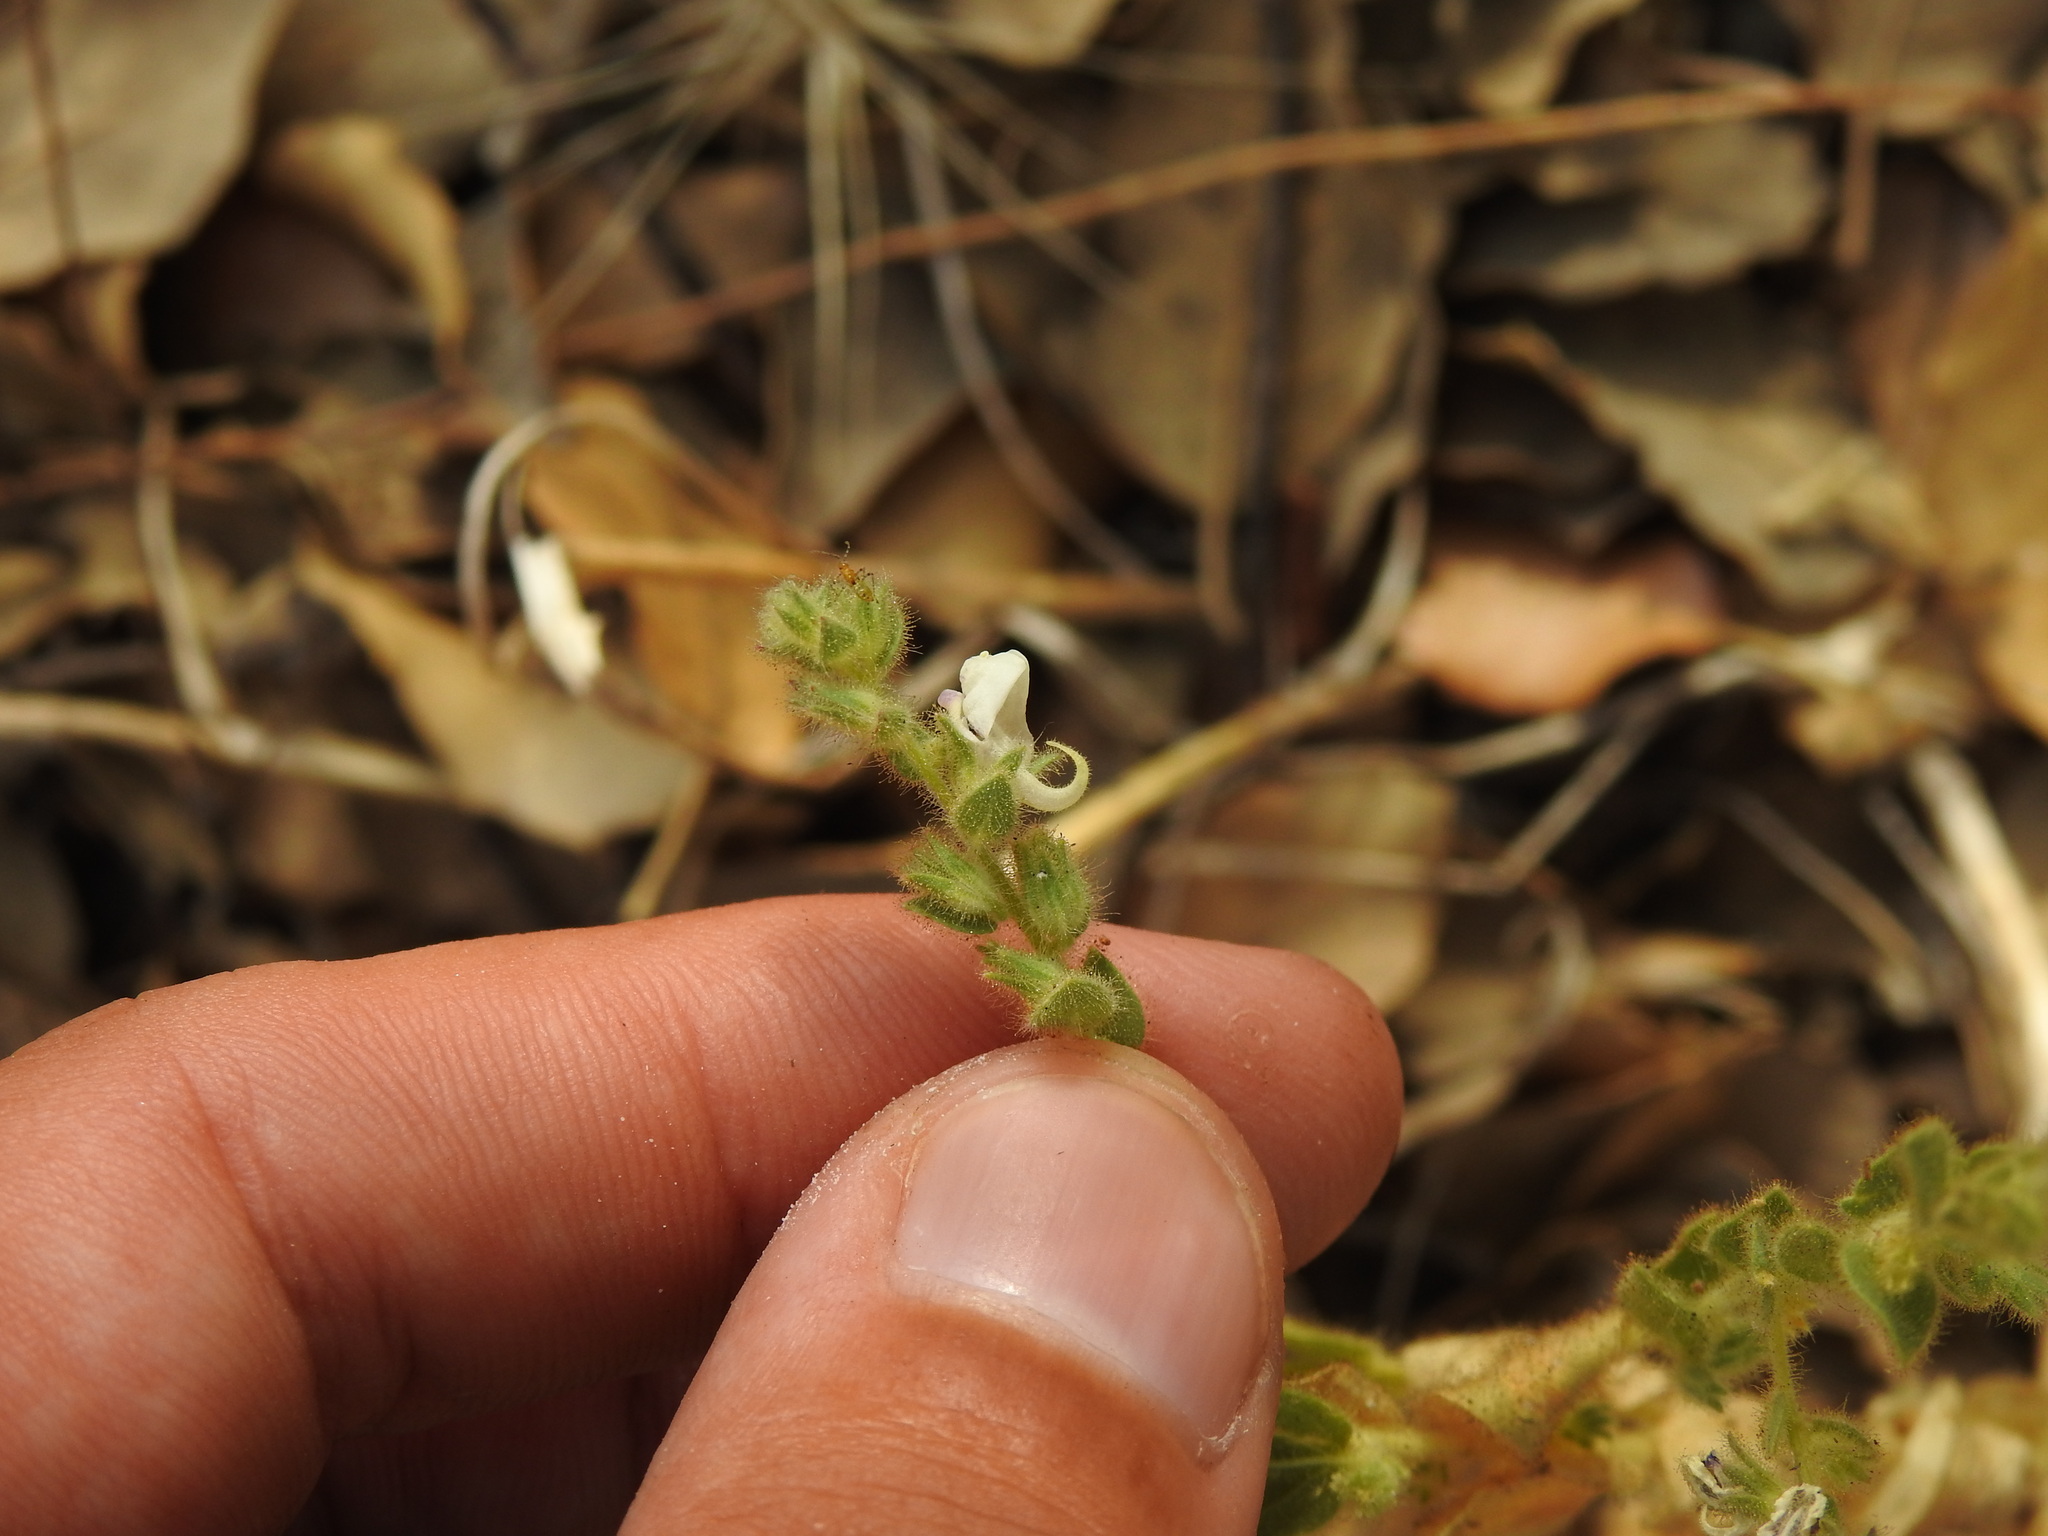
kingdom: Plantae
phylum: Tracheophyta
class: Magnoliopsida
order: Lamiales
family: Plantaginaceae
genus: Kickxia
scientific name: Kickxia lanigera
